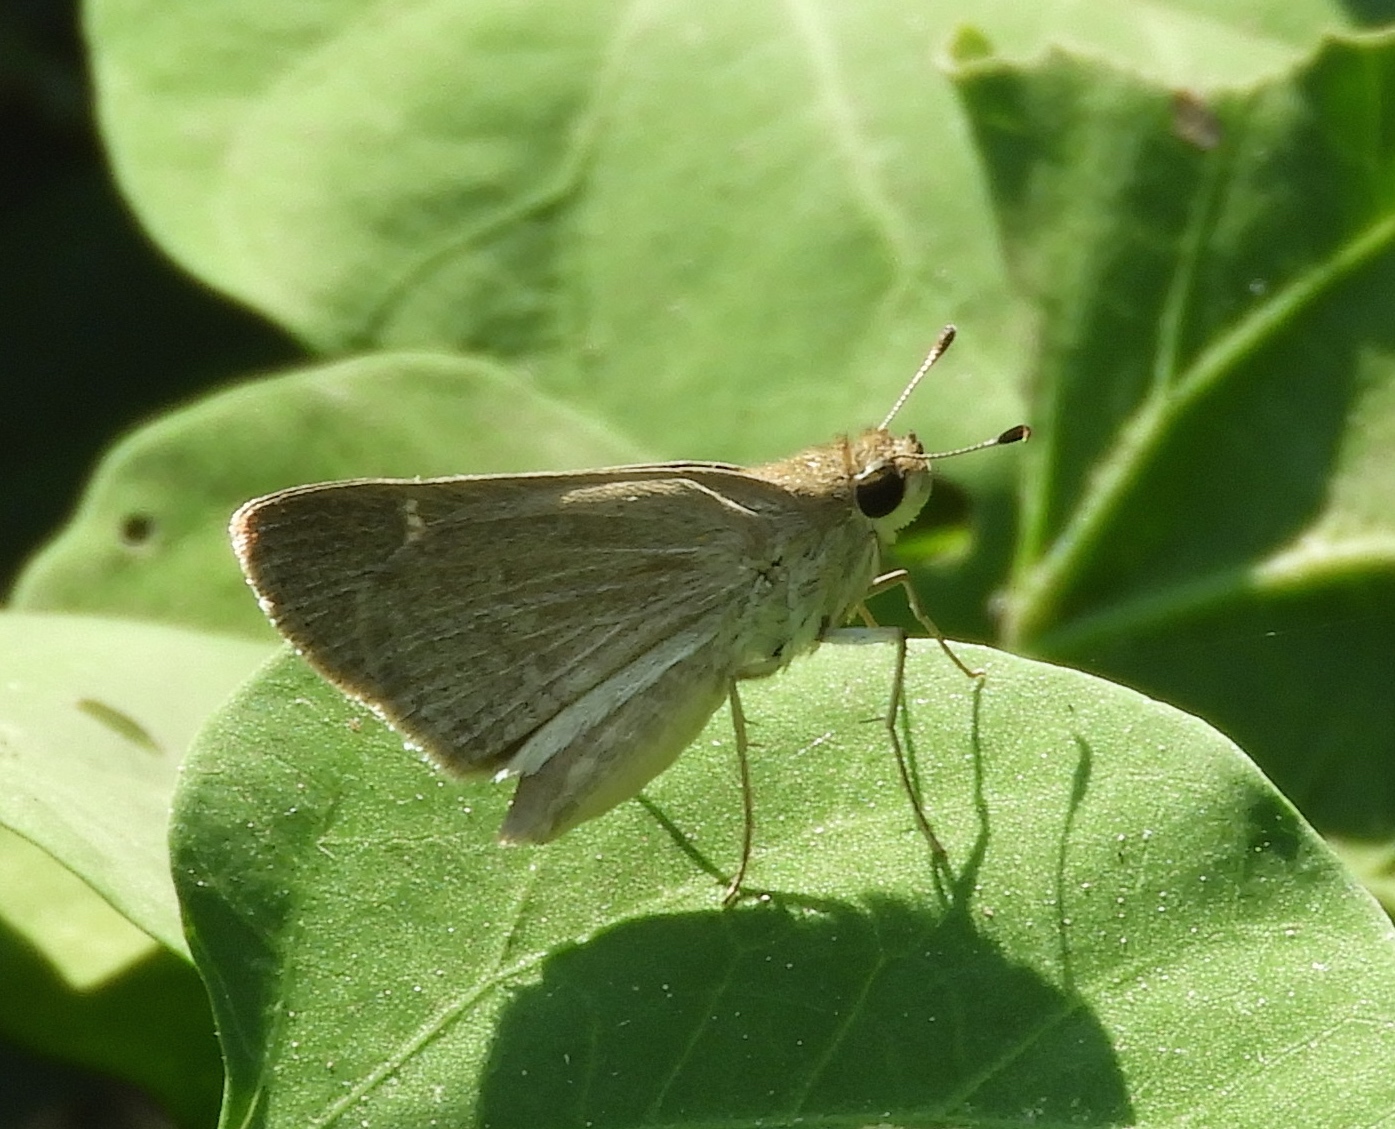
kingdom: Animalia
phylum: Arthropoda
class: Insecta
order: Lepidoptera
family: Hesperiidae
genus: Lerodea
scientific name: Lerodea
